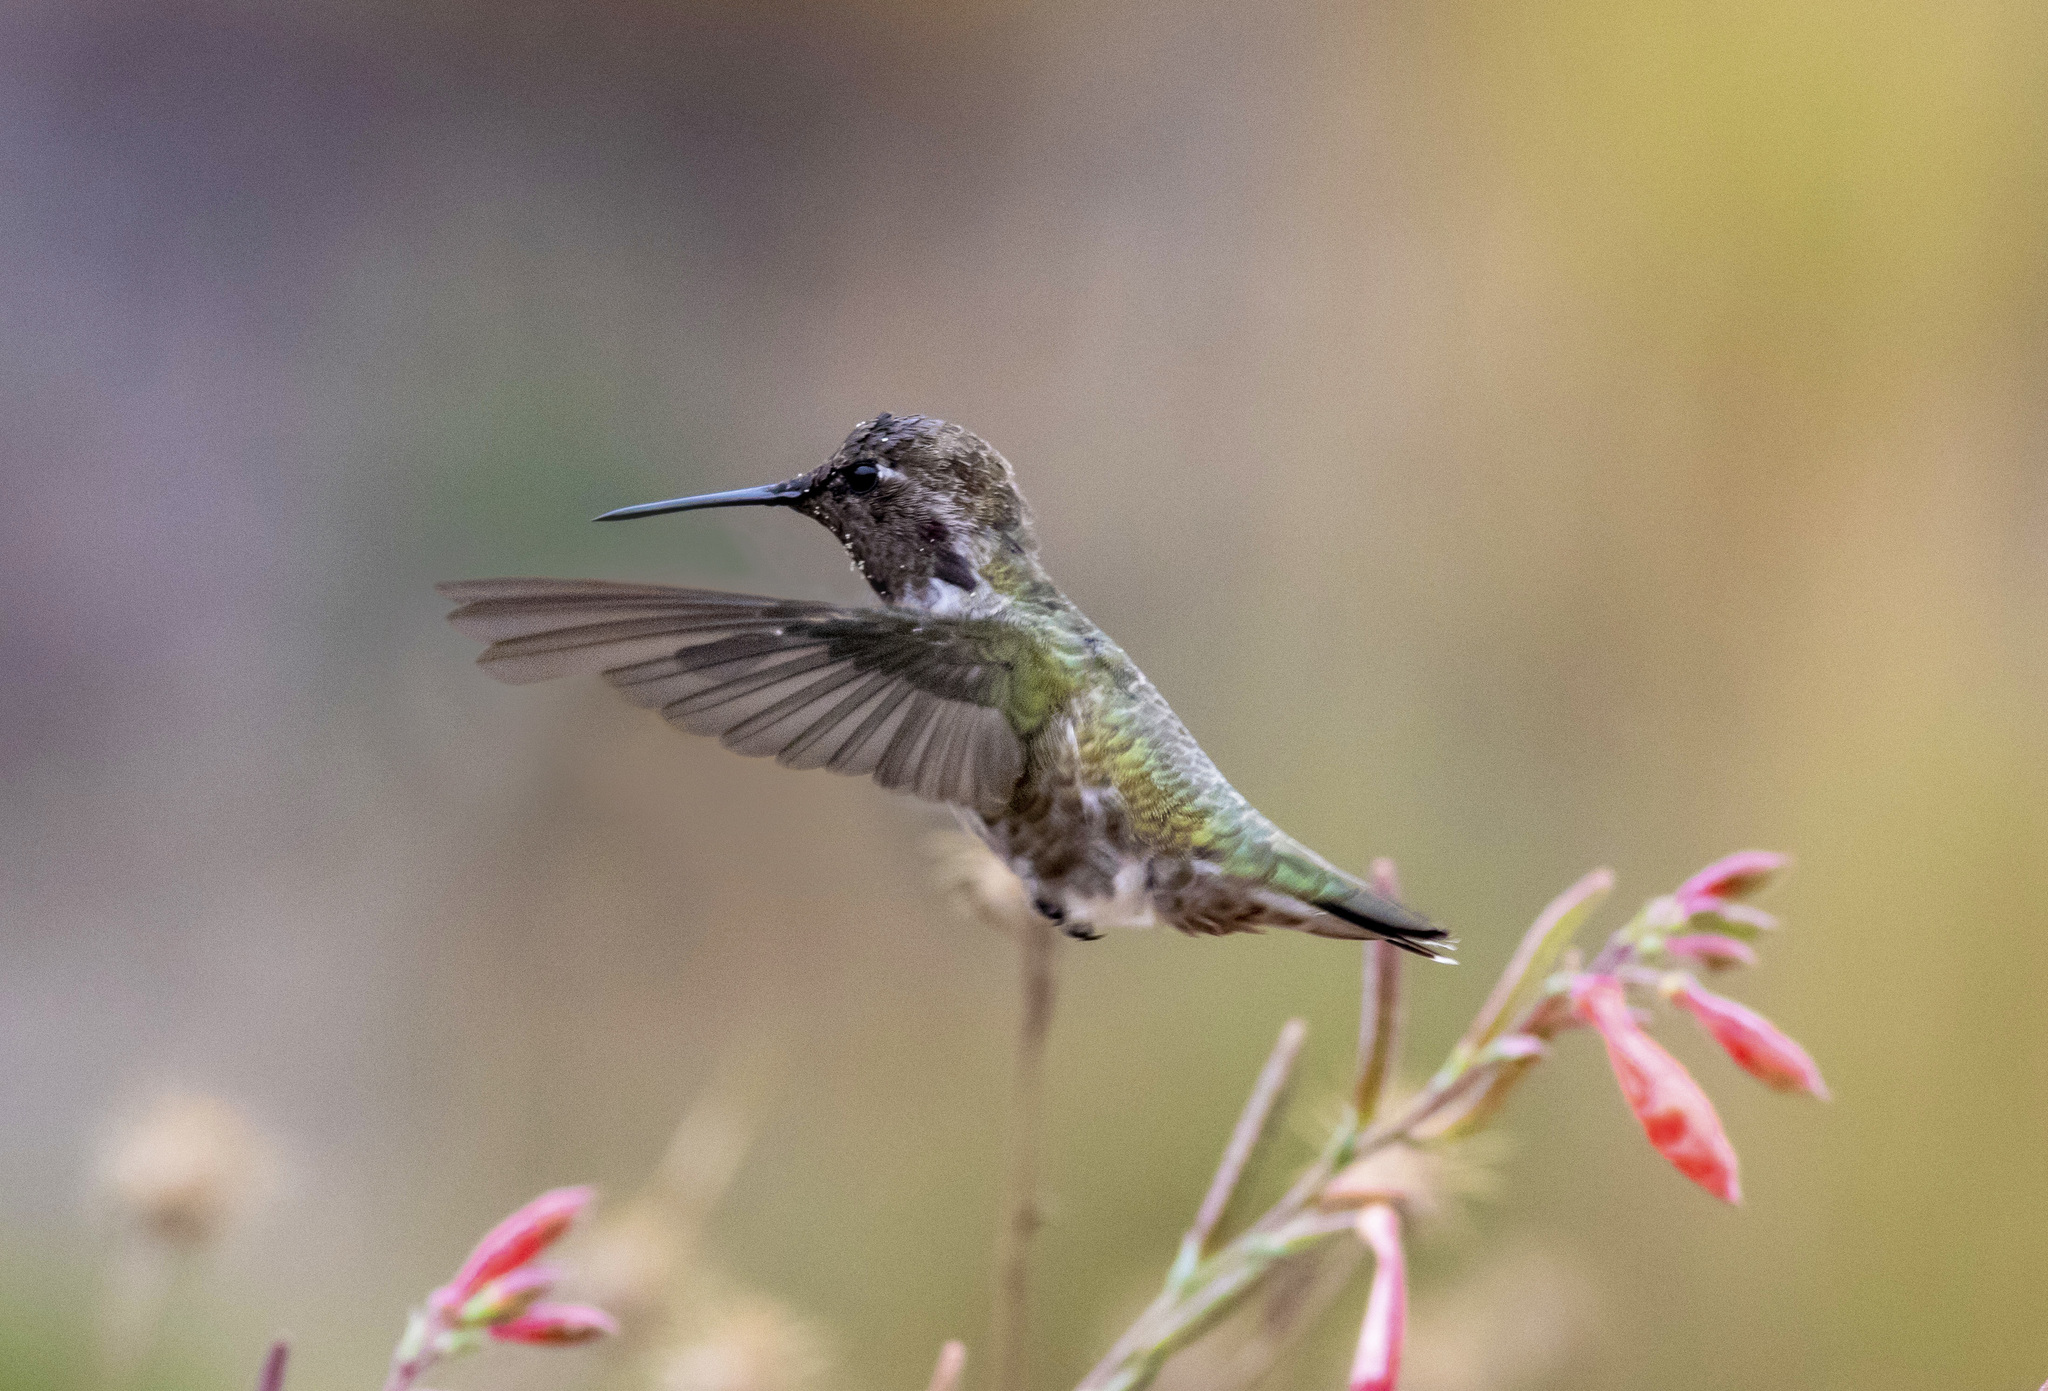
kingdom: Animalia
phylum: Chordata
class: Aves
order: Apodiformes
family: Trochilidae
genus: Calypte
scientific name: Calypte anna
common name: Anna's hummingbird
